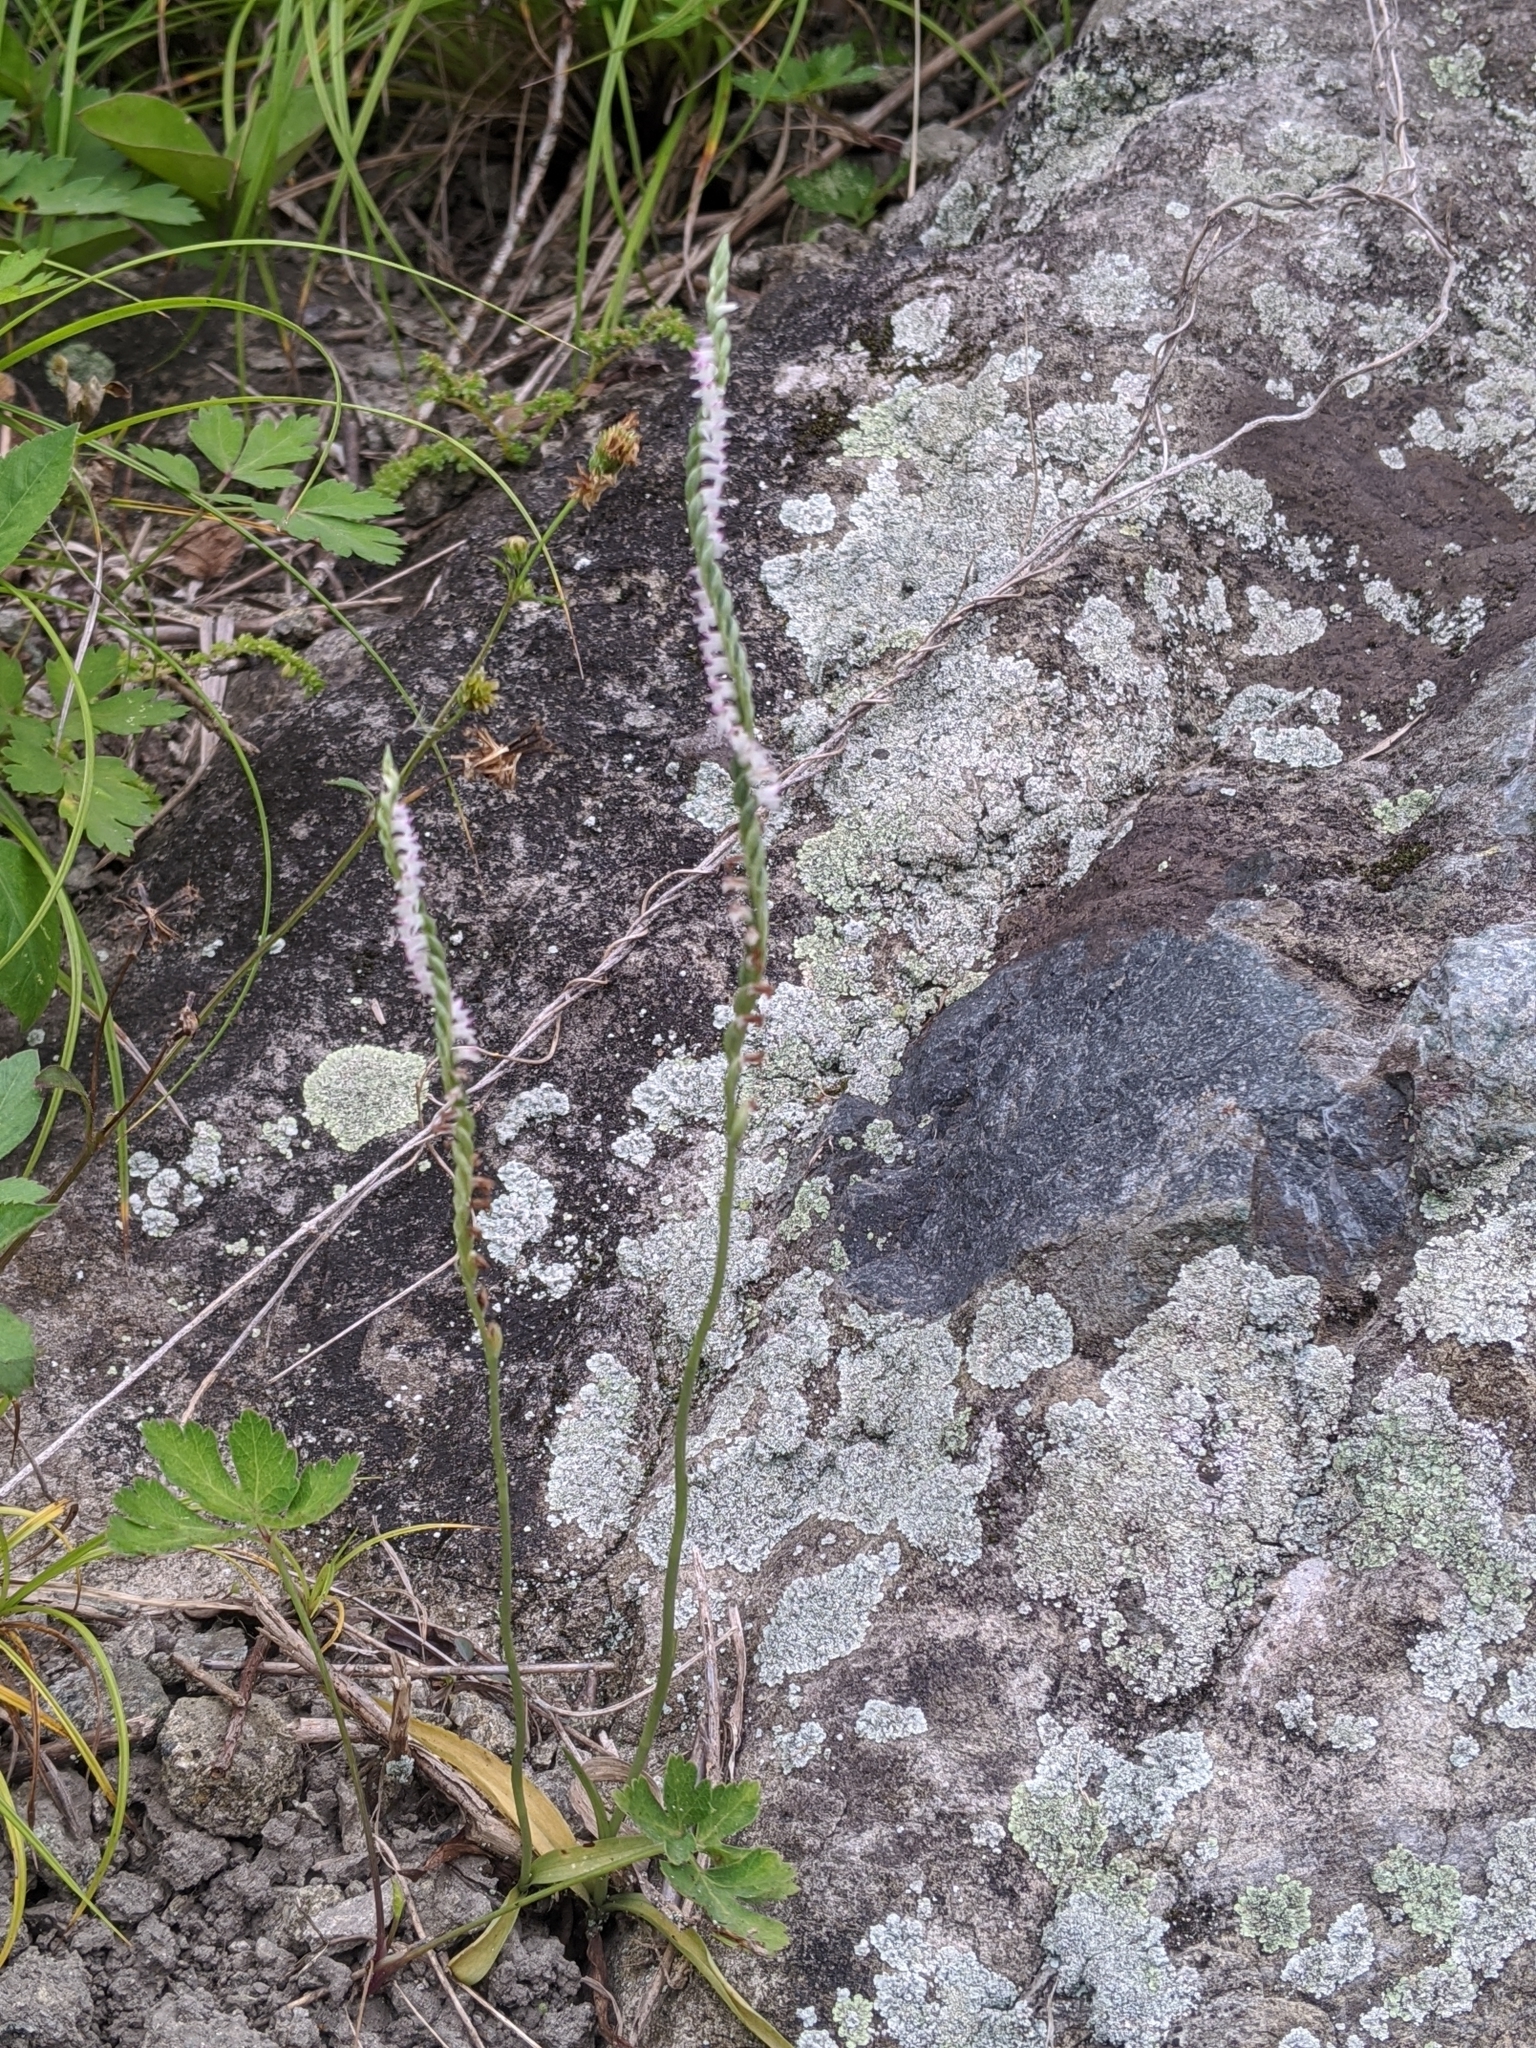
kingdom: Plantae
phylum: Tracheophyta
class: Liliopsida
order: Asparagales
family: Orchidaceae
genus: Spiranthes
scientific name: Spiranthes sinensis
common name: Chinese spiranthes
